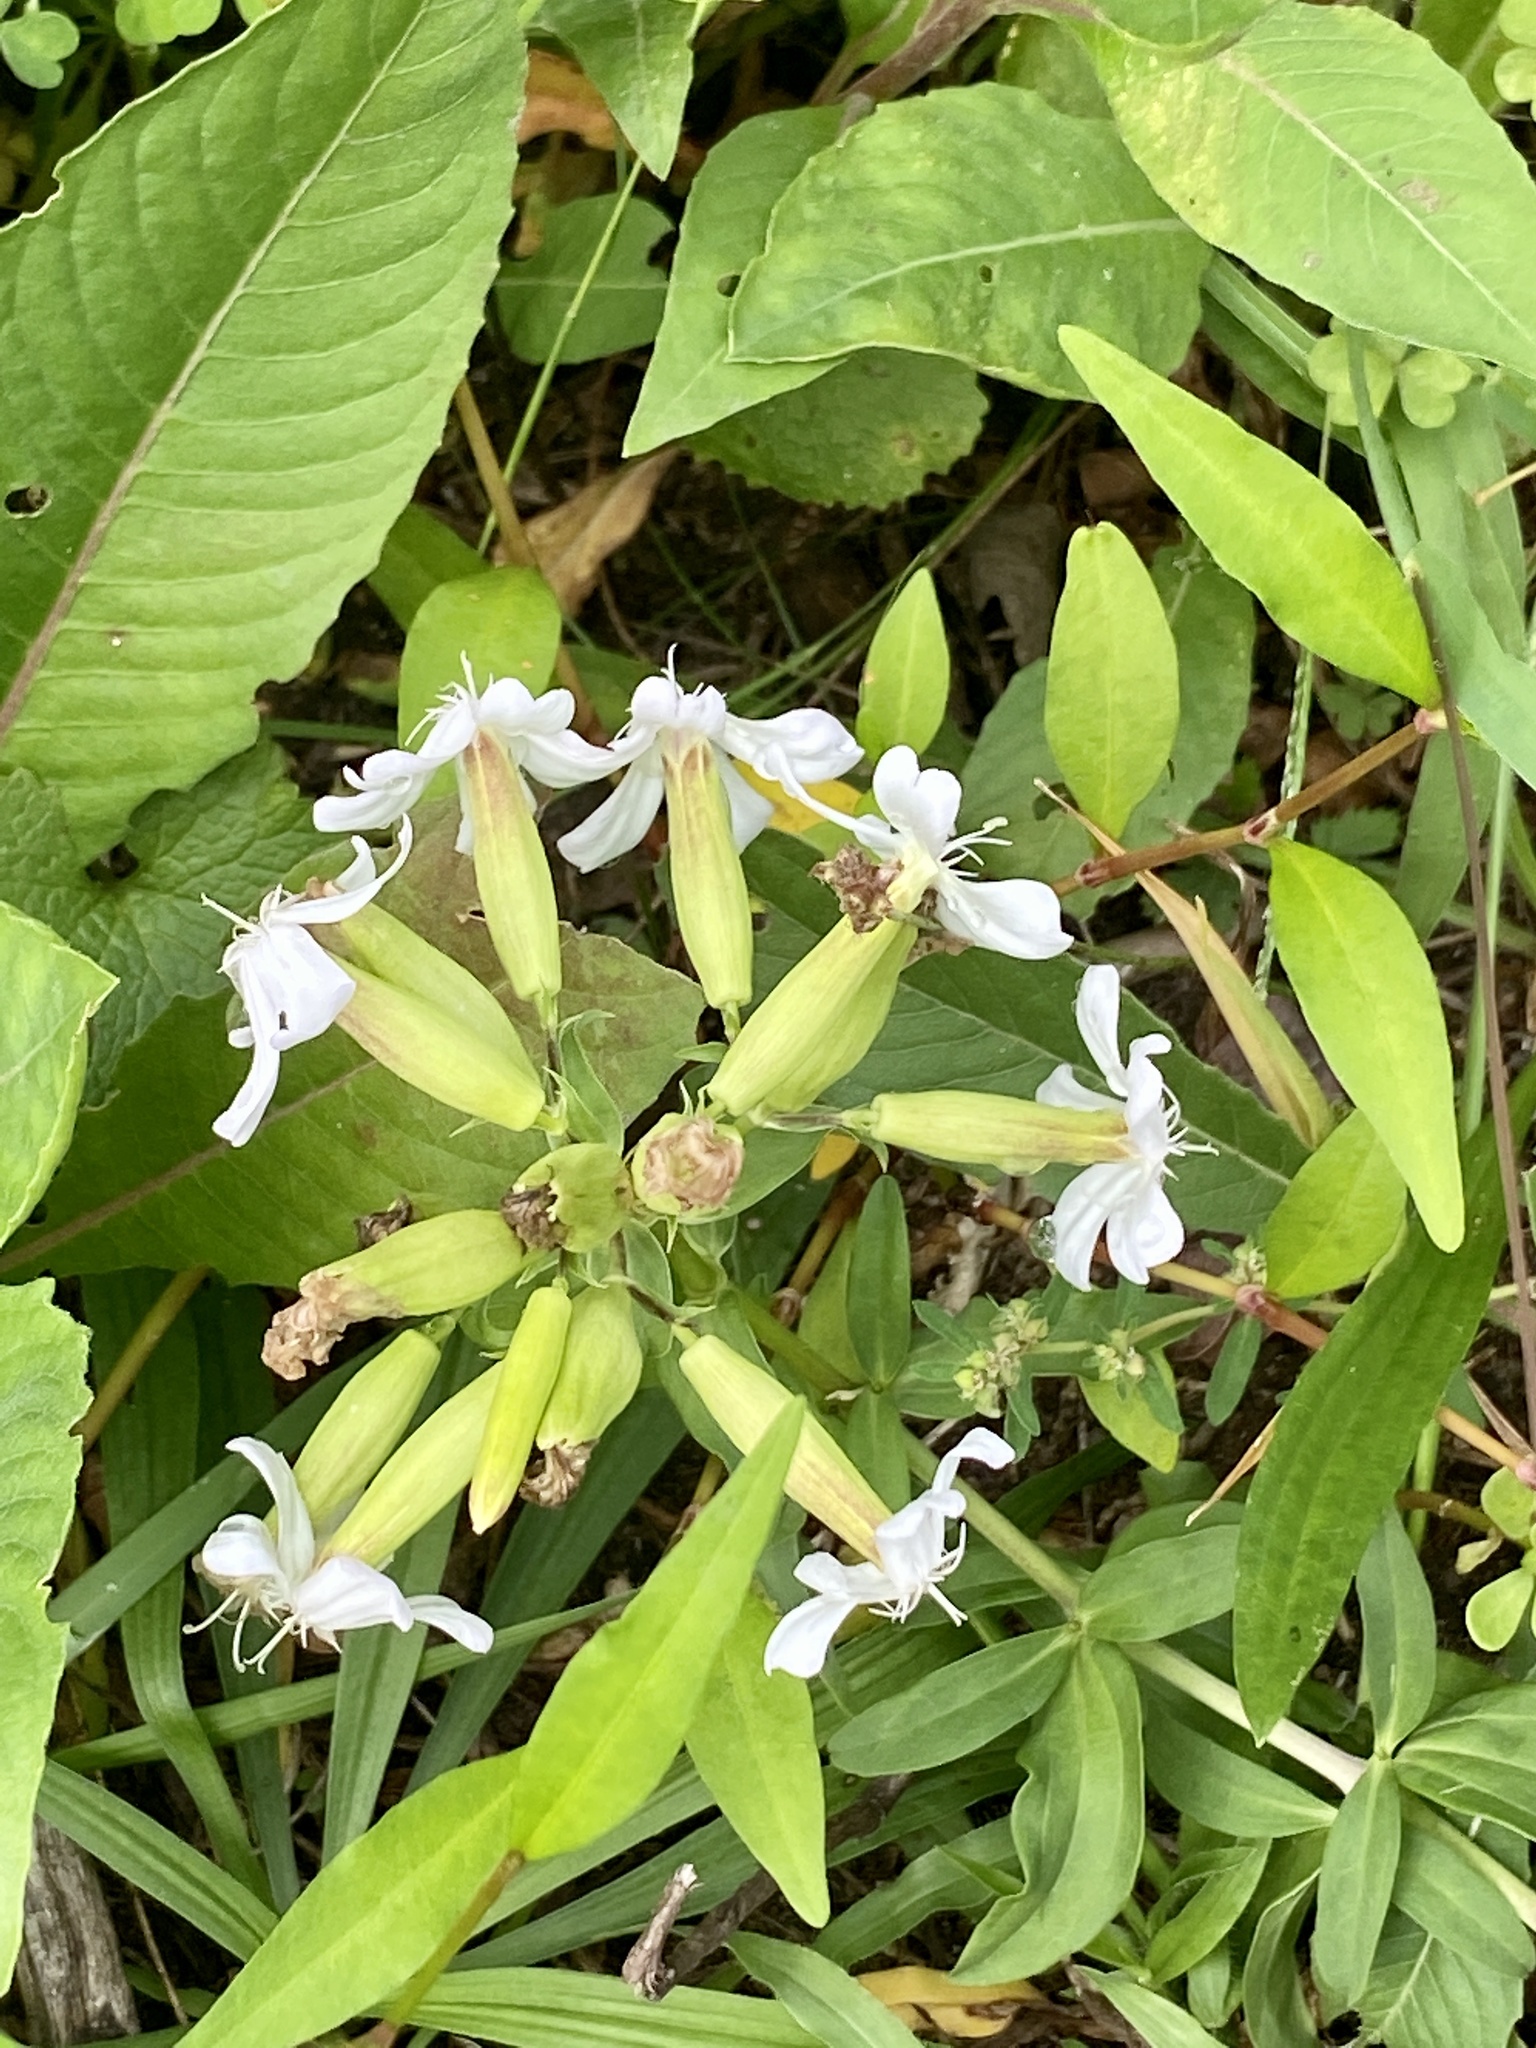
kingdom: Plantae
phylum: Tracheophyta
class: Magnoliopsida
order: Caryophyllales
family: Caryophyllaceae
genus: Saponaria
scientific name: Saponaria officinalis
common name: Soapwort
